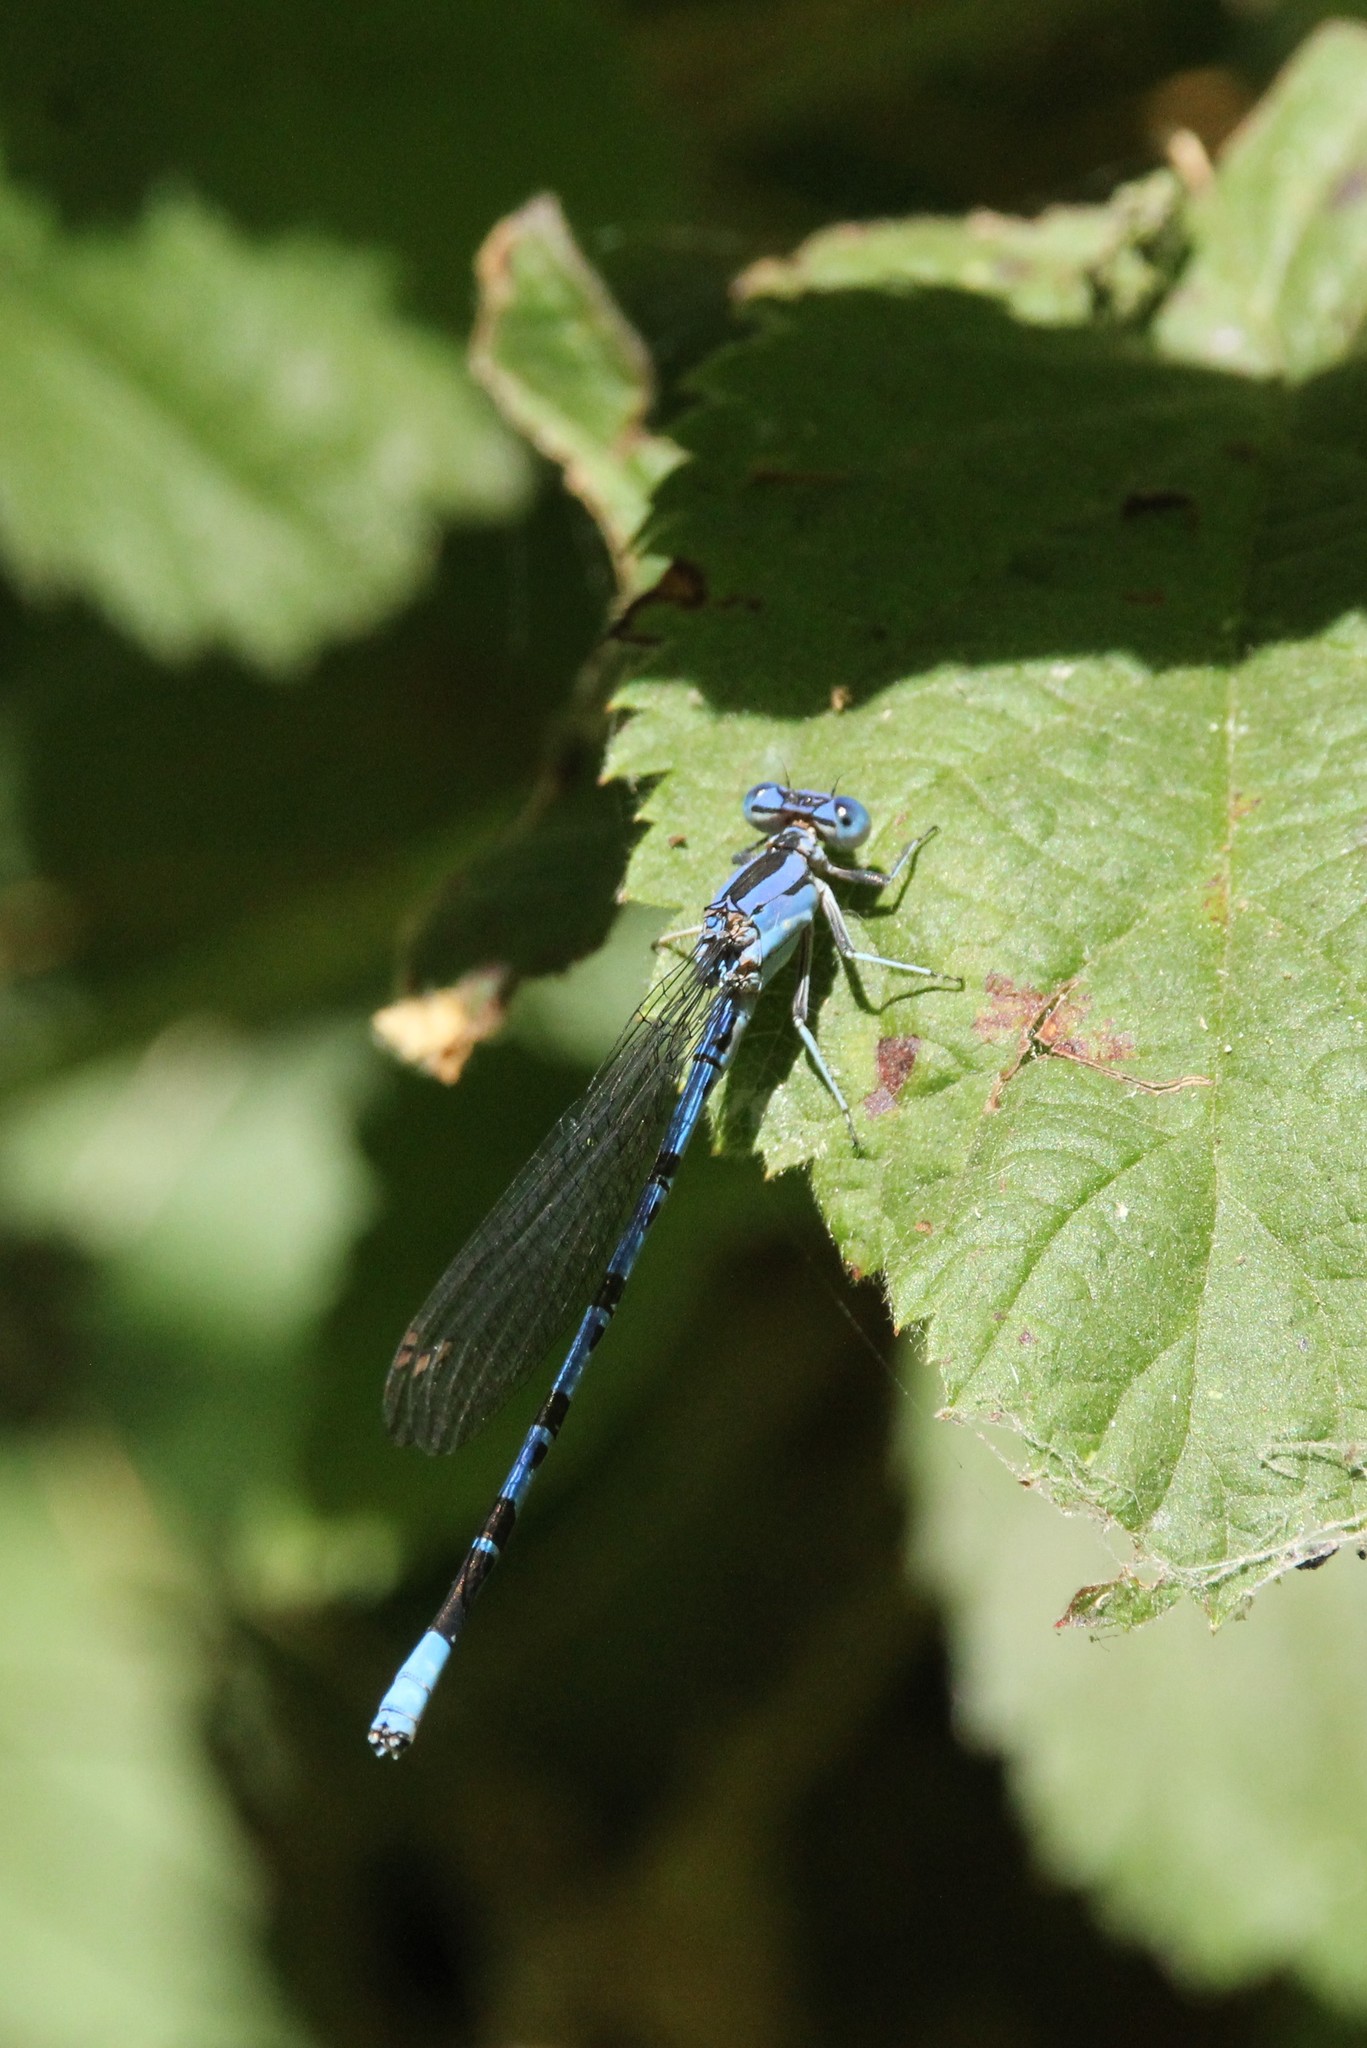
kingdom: Animalia
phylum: Arthropoda
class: Insecta
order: Odonata
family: Coenagrionidae
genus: Argia
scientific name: Argia vivida
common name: Vivid dancer
